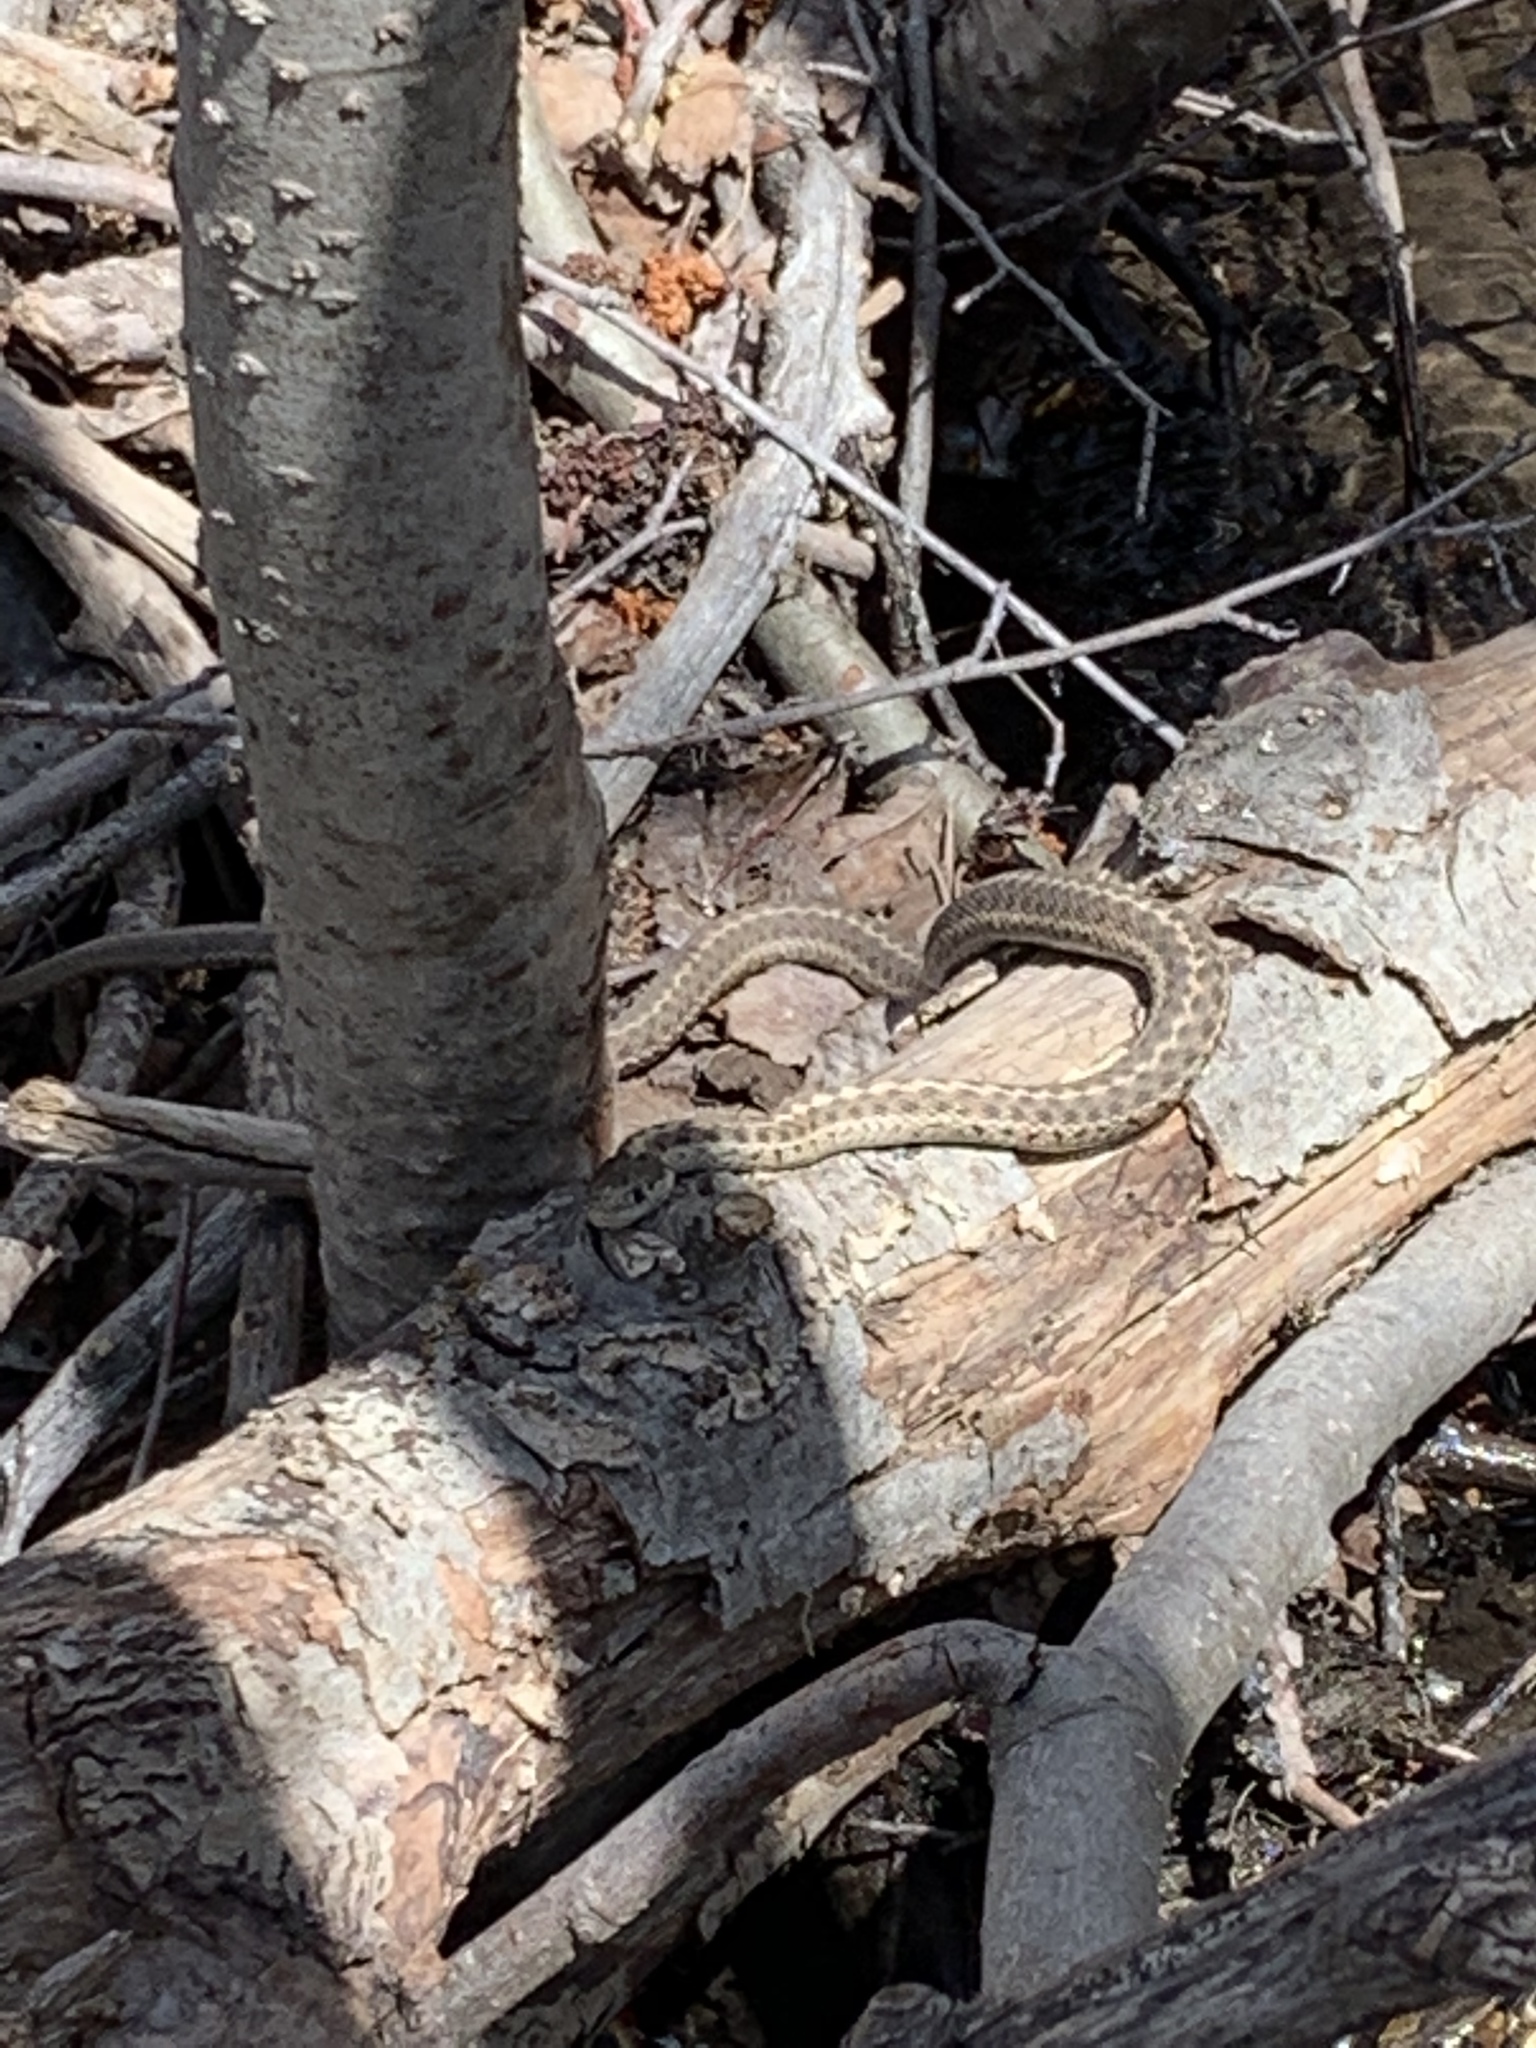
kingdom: Animalia
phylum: Chordata
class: Squamata
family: Colubridae
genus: Thamnophis
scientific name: Thamnophis elegans
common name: Western terrestrial garter snake
